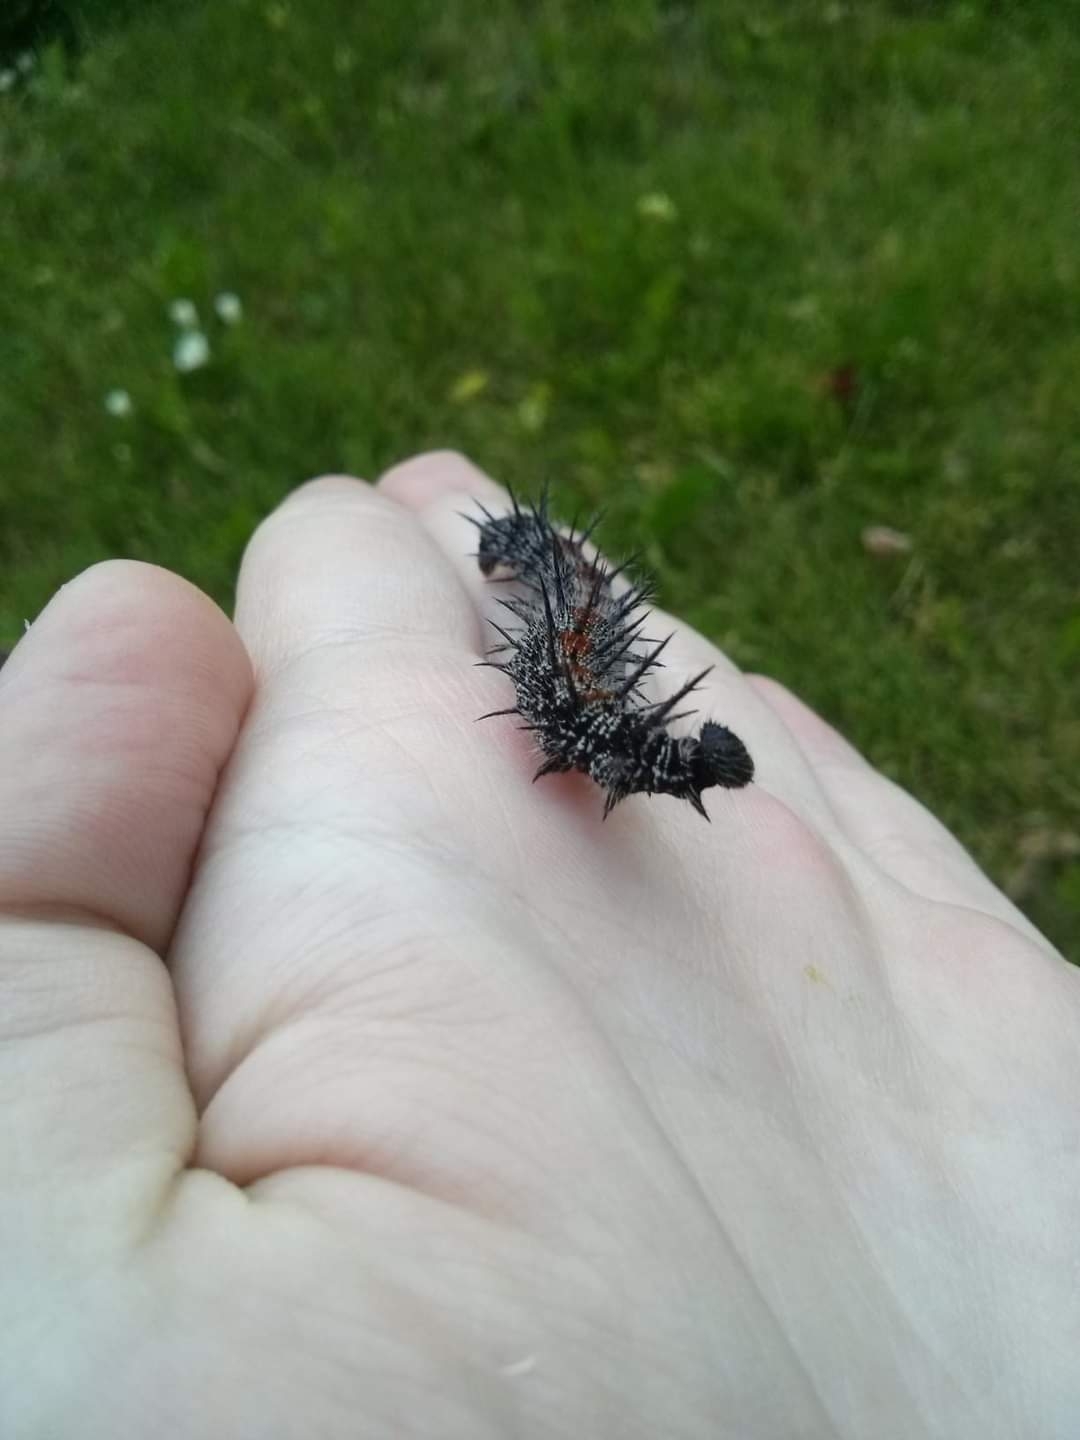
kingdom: Animalia
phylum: Arthropoda
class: Insecta
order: Lepidoptera
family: Nymphalidae
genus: Nymphalis
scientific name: Nymphalis antiopa
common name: Camberwell beauty
